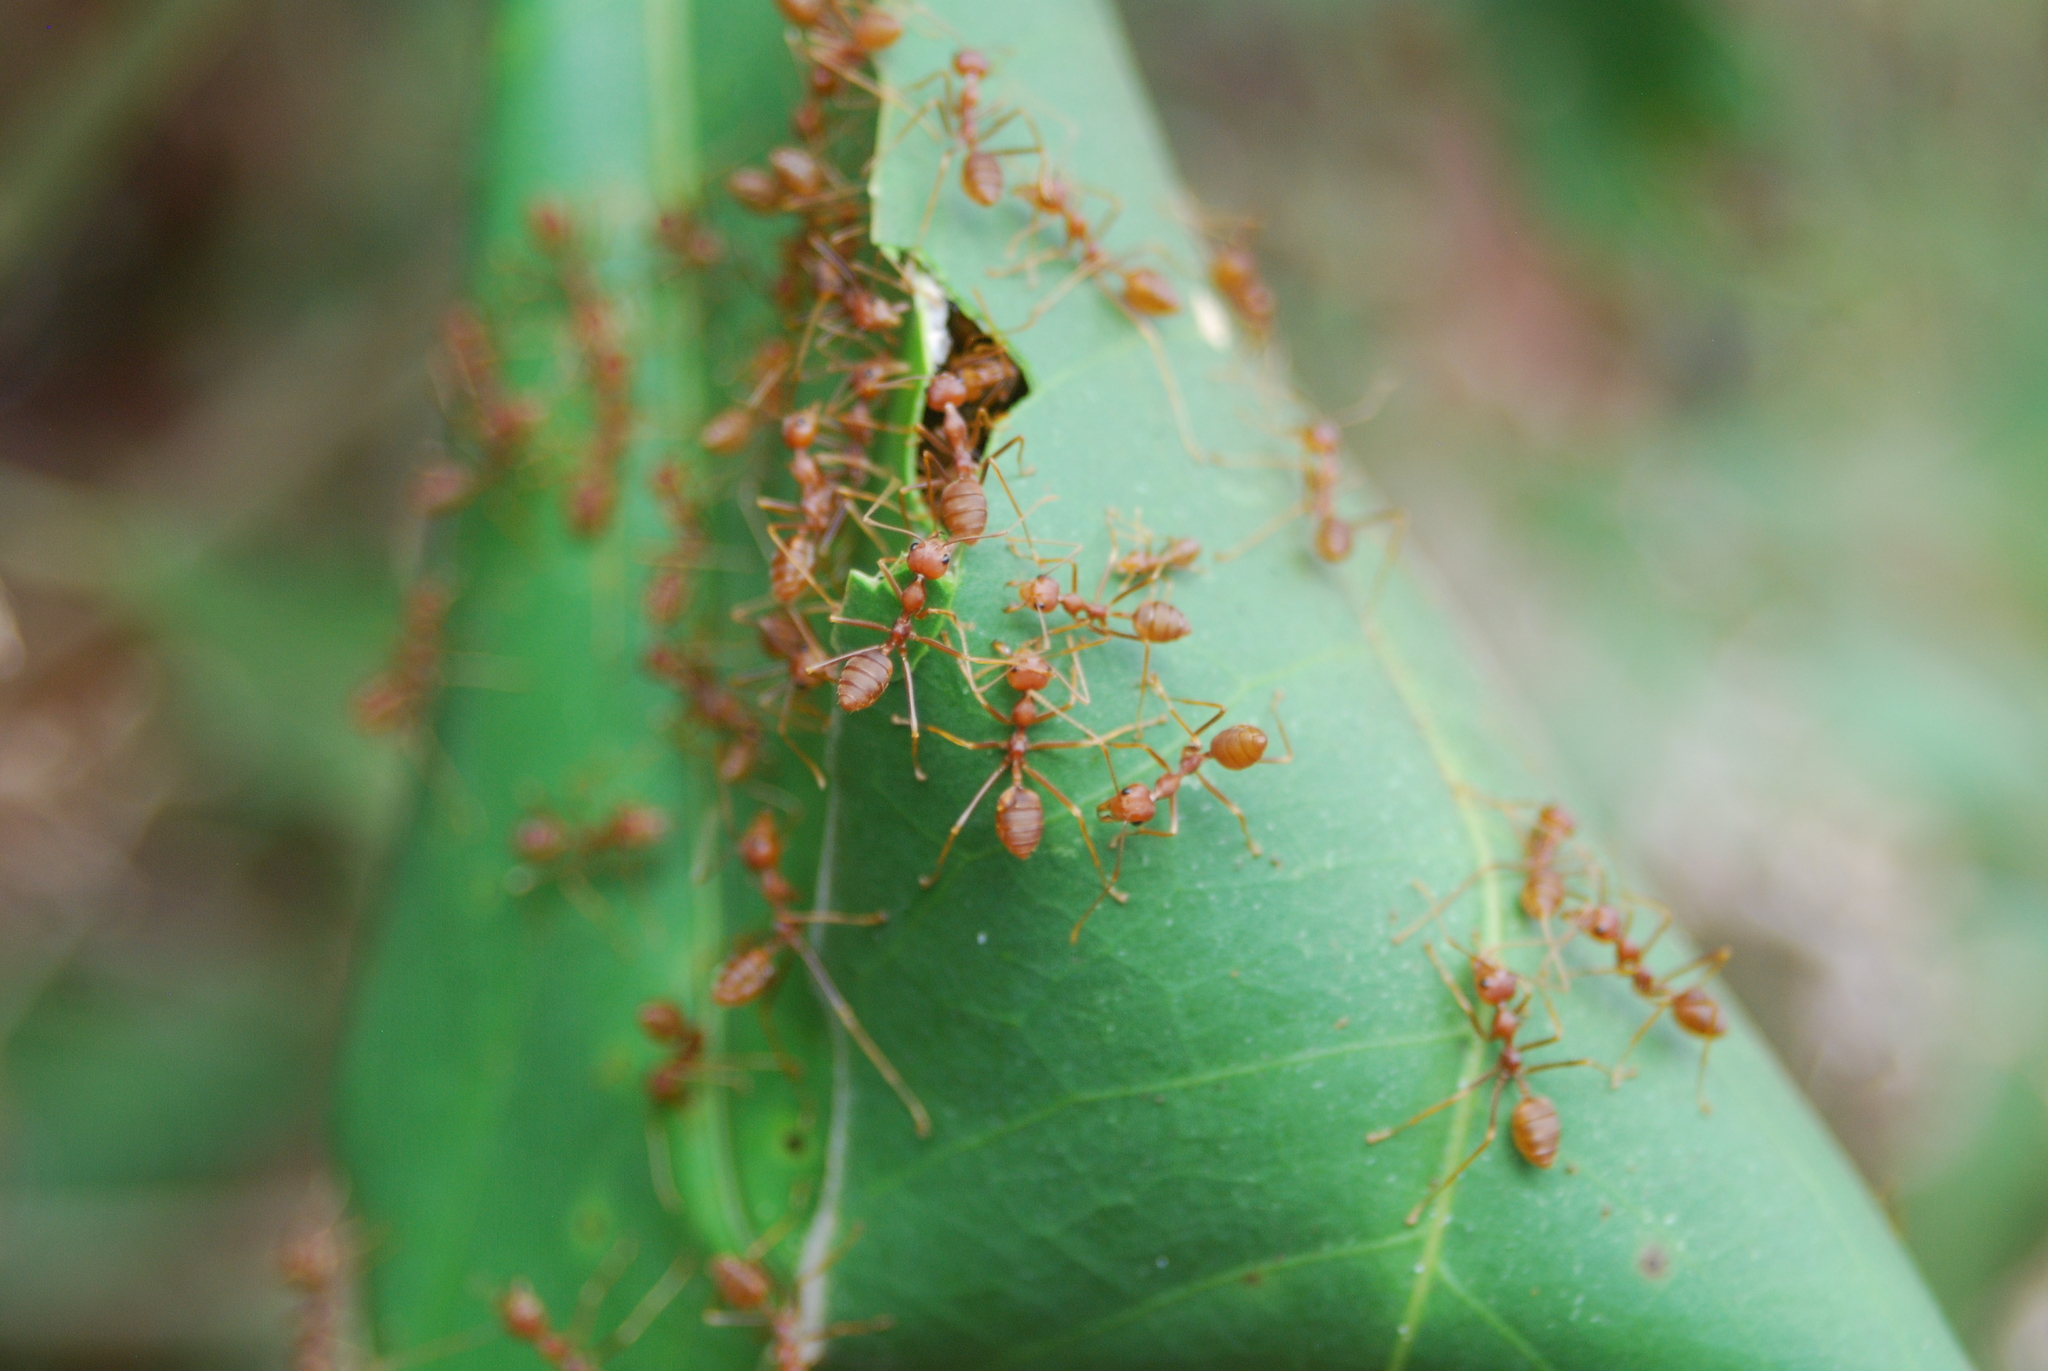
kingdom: Animalia
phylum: Arthropoda
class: Insecta
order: Hymenoptera
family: Formicidae
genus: Oecophylla
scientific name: Oecophylla smaragdina
